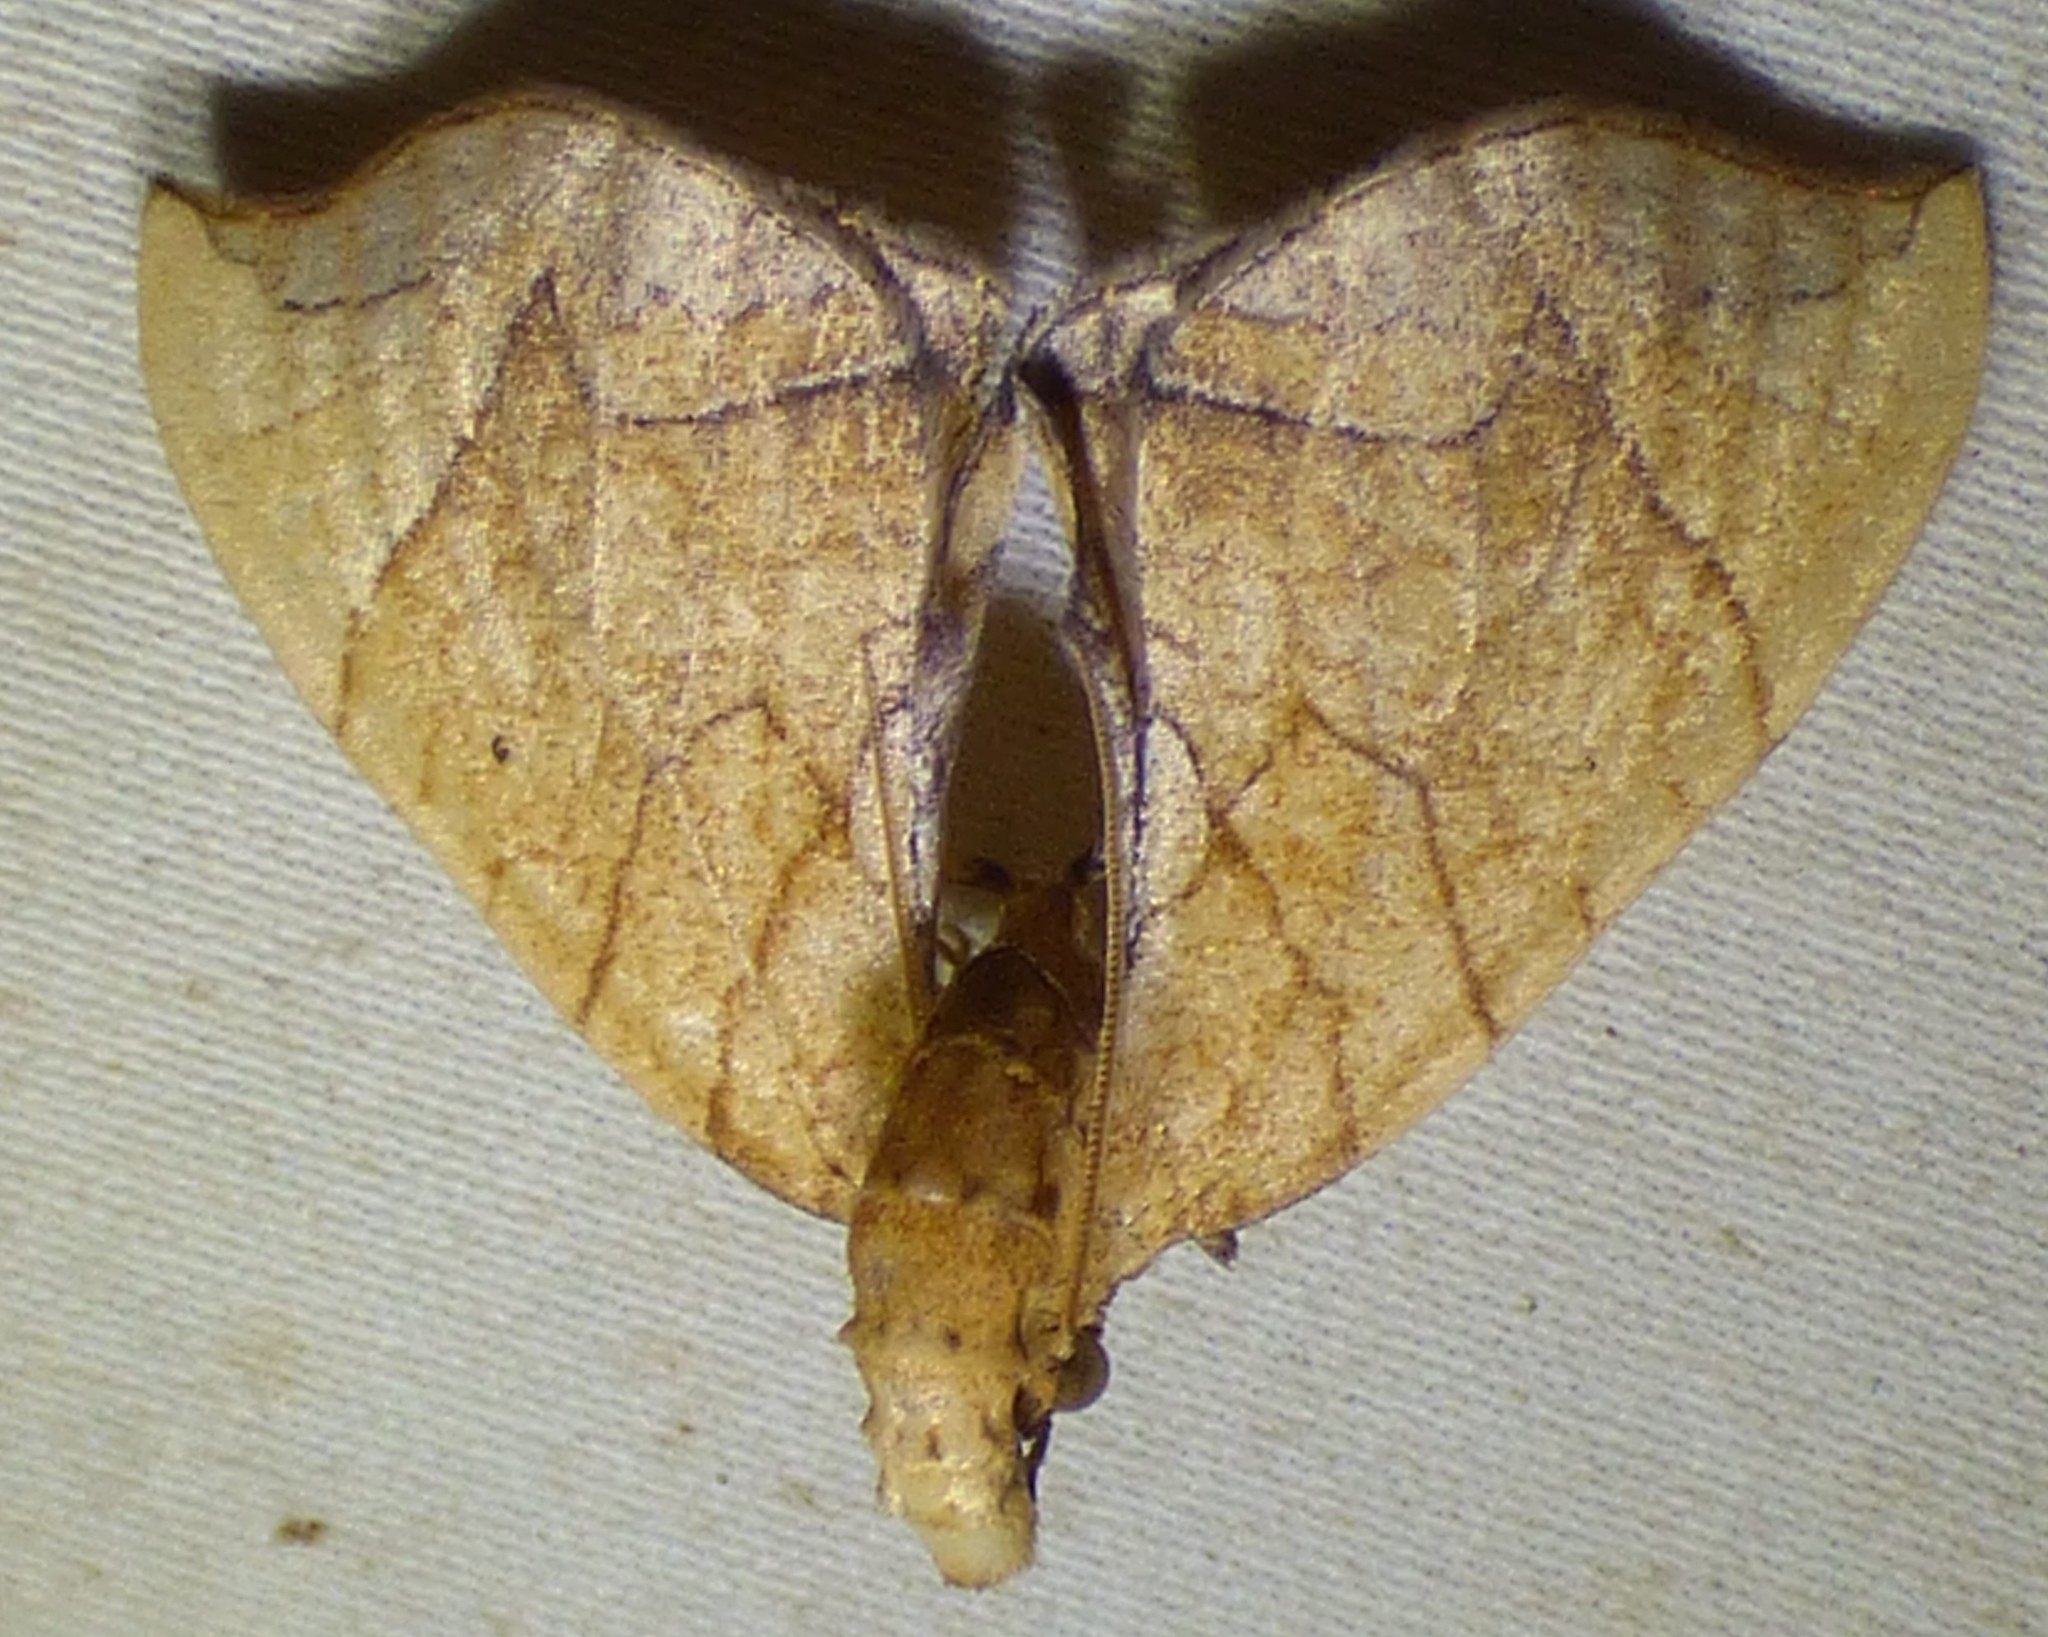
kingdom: Animalia
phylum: Arthropoda
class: Insecta
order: Lepidoptera
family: Geometridae
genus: Eulithis
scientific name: Eulithis
